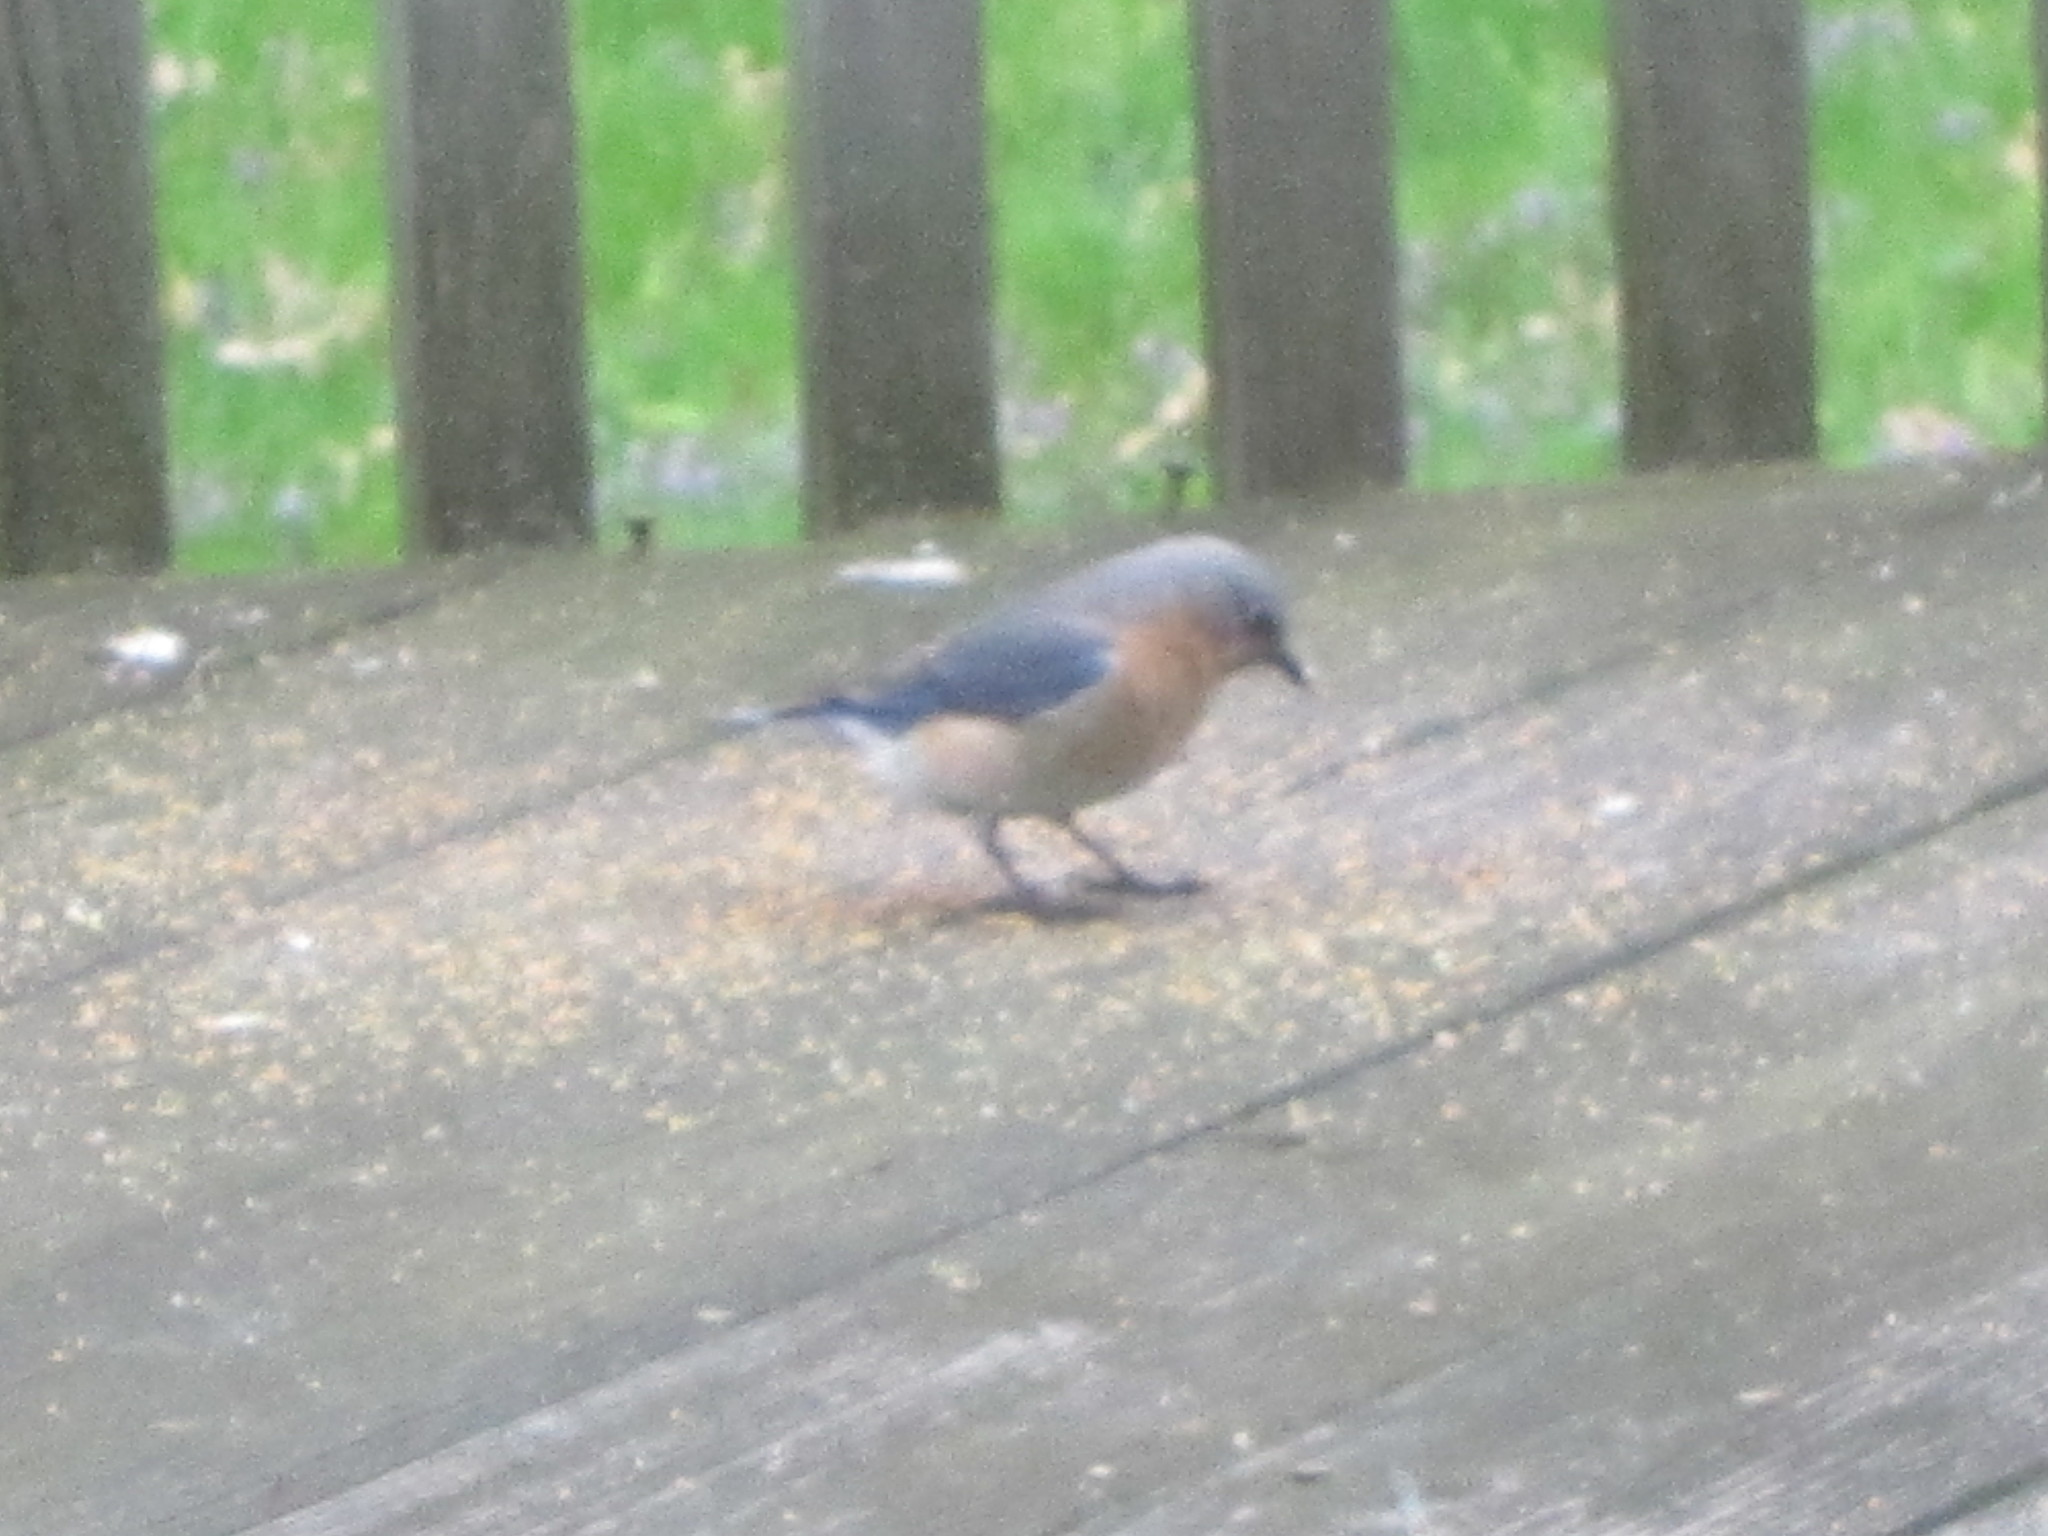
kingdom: Animalia
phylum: Chordata
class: Aves
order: Passeriformes
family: Turdidae
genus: Sialia
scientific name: Sialia sialis
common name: Eastern bluebird
